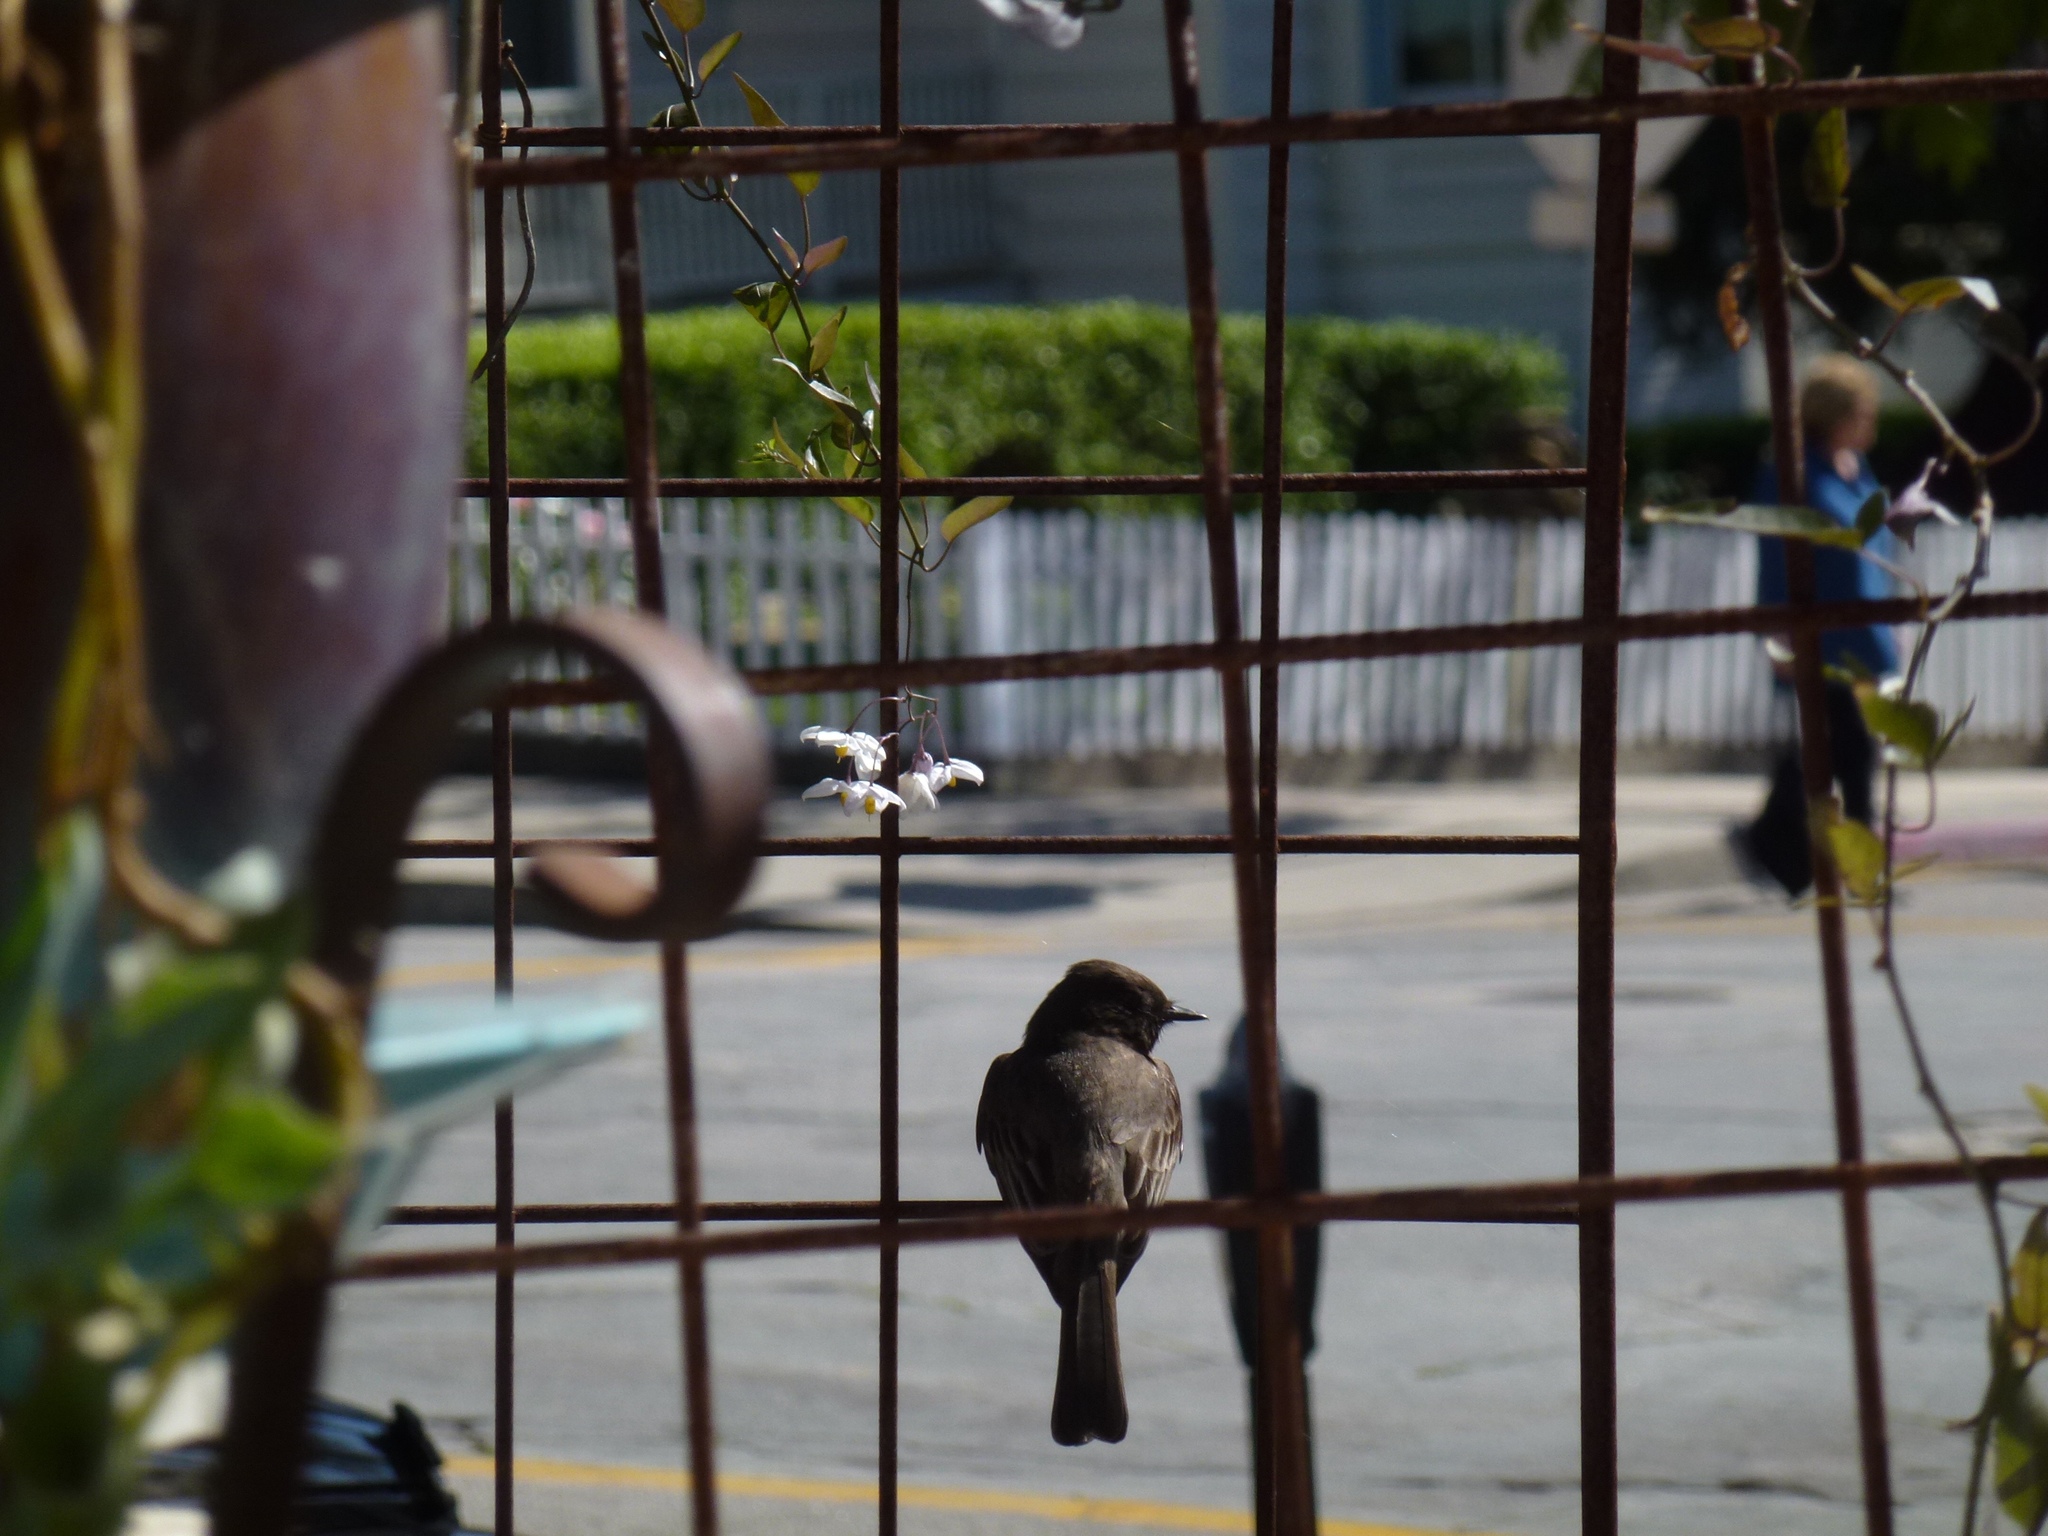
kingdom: Animalia
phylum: Chordata
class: Aves
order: Passeriformes
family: Tyrannidae
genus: Sayornis
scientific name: Sayornis nigricans
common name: Black phoebe
